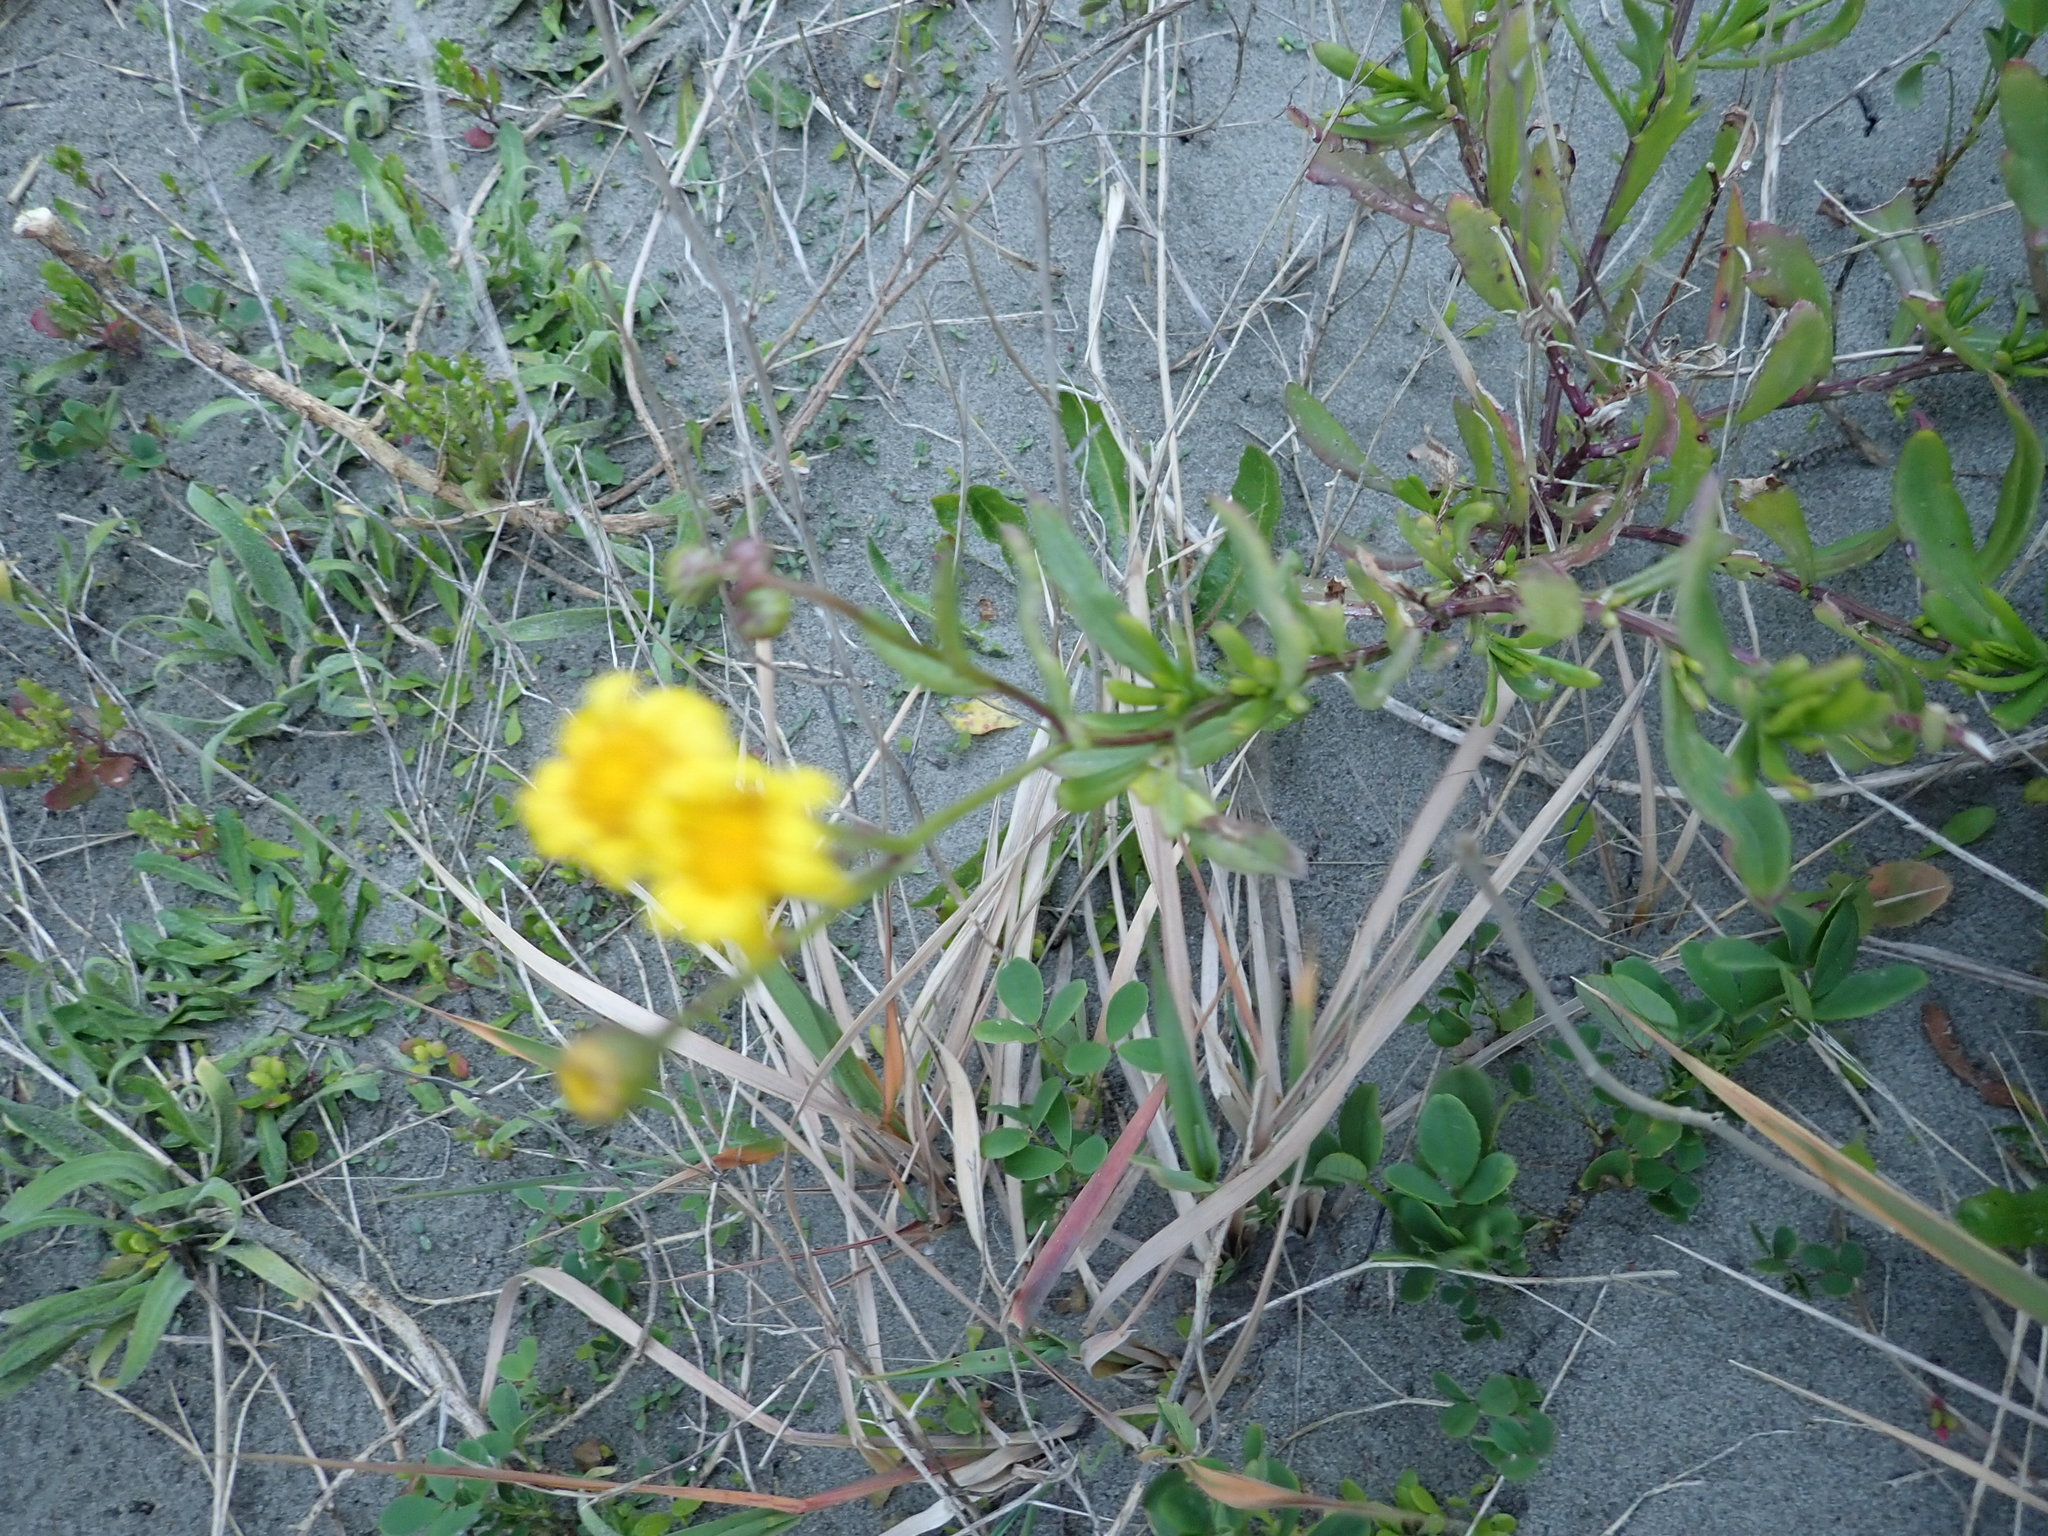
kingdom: Plantae
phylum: Tracheophyta
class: Magnoliopsida
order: Asterales
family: Asteraceae
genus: Senecio
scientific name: Senecio skirrhodon
